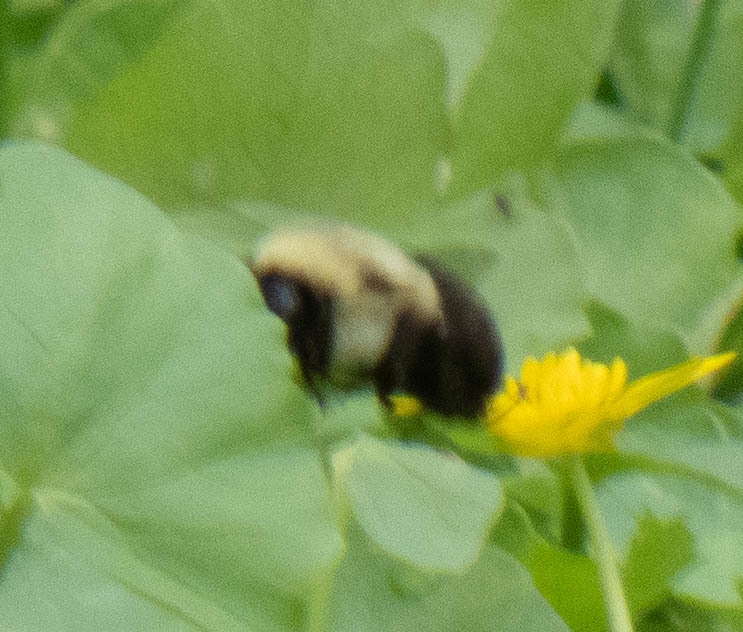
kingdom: Animalia
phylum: Arthropoda
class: Insecta
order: Hymenoptera
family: Apidae
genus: Bombus
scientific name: Bombus impatiens
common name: Common eastern bumble bee
